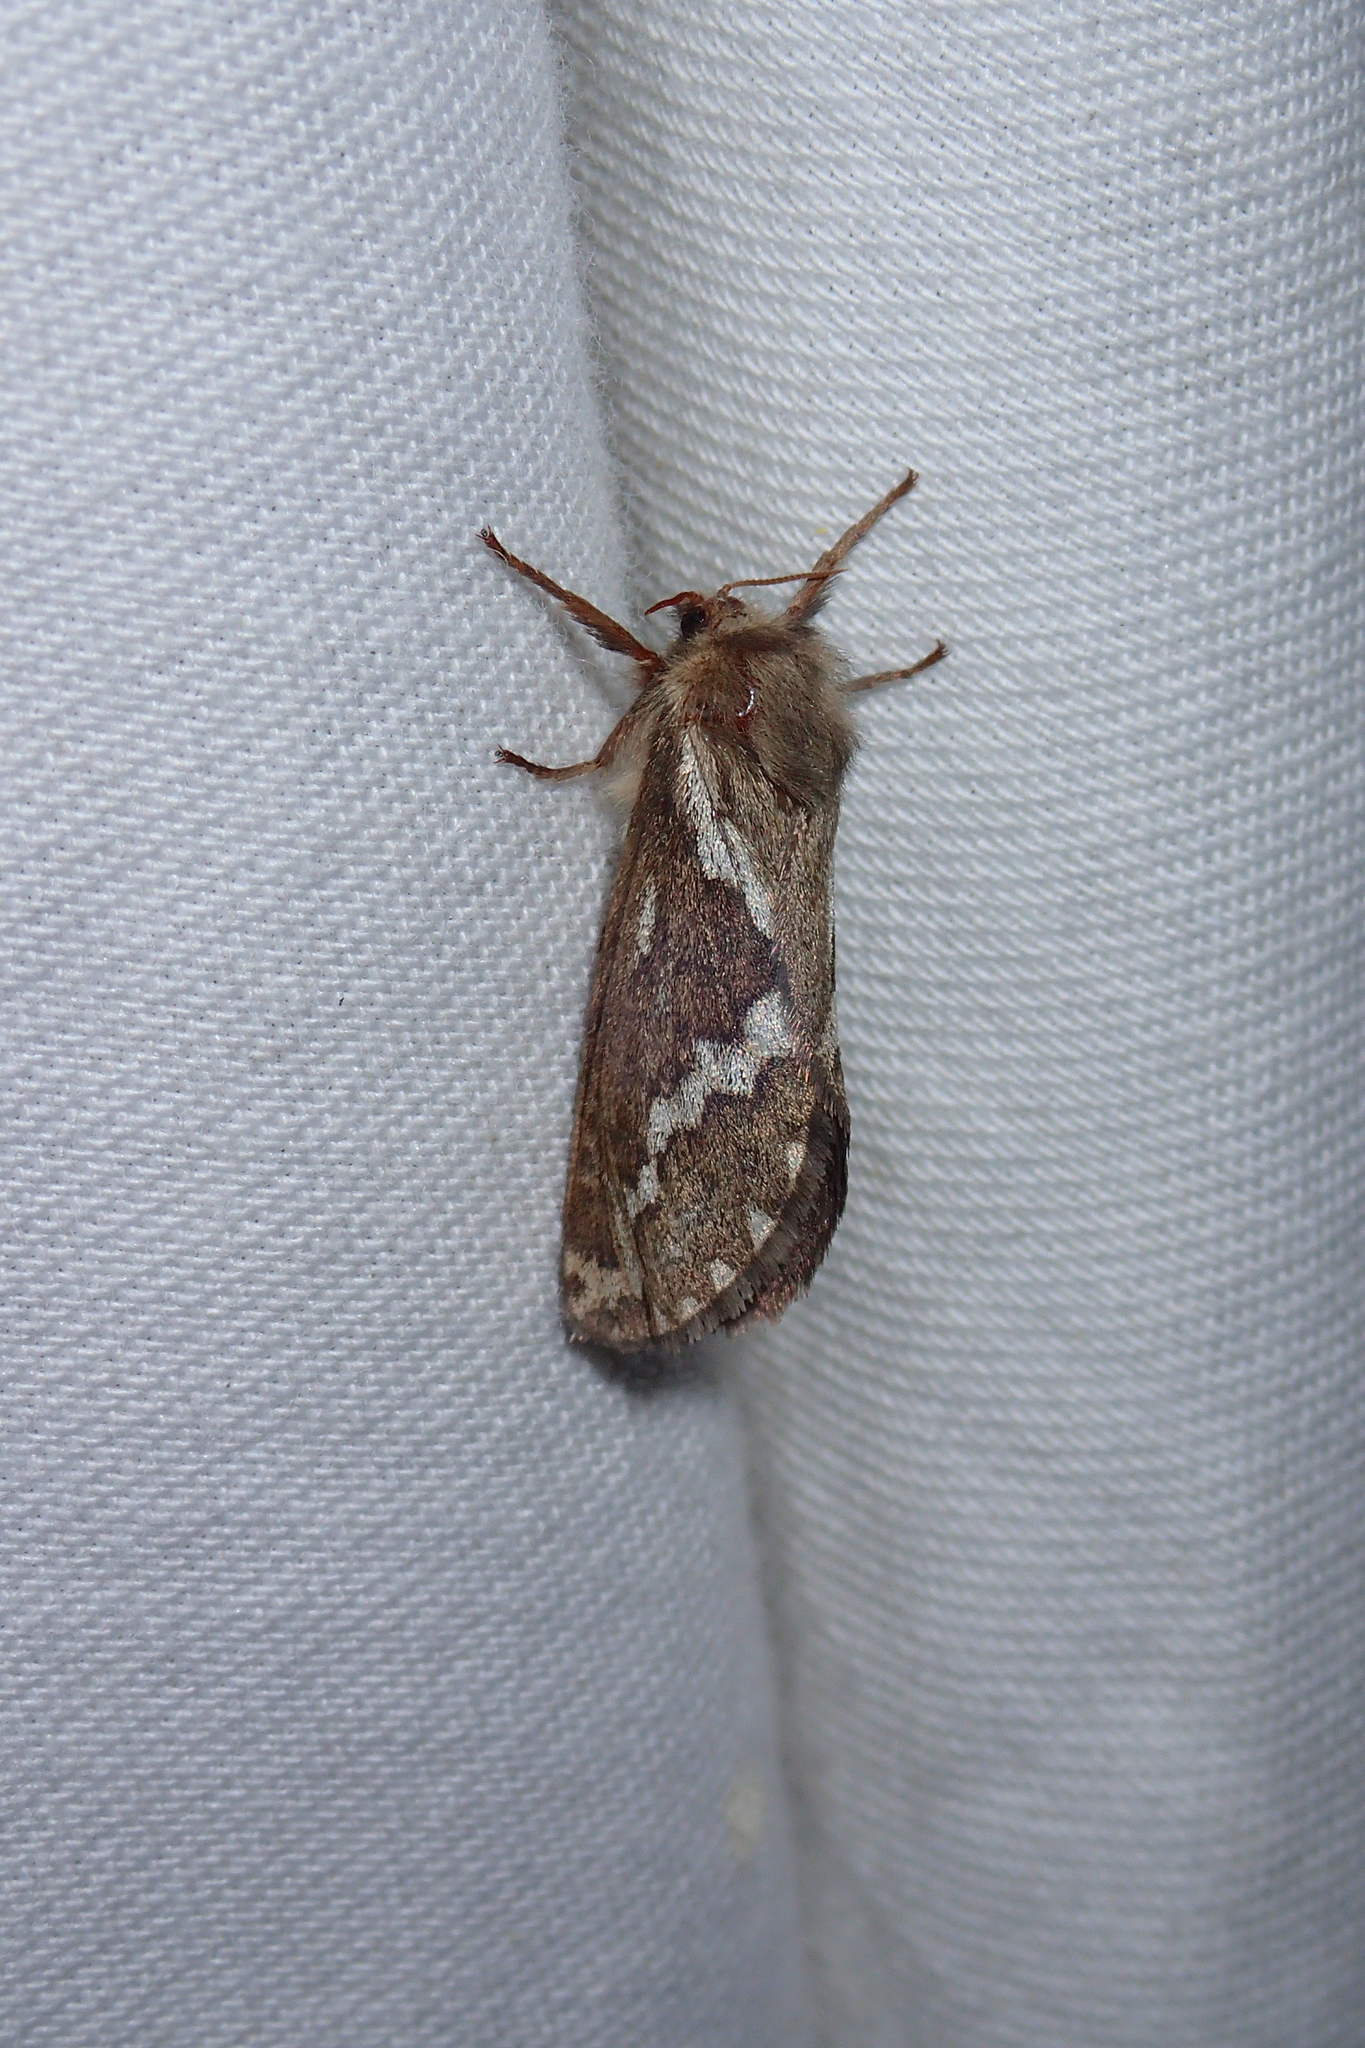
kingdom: Animalia
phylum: Arthropoda
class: Insecta
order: Lepidoptera
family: Hepialidae
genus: Korscheltellus
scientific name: Korscheltellus lupulina
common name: Common swift
